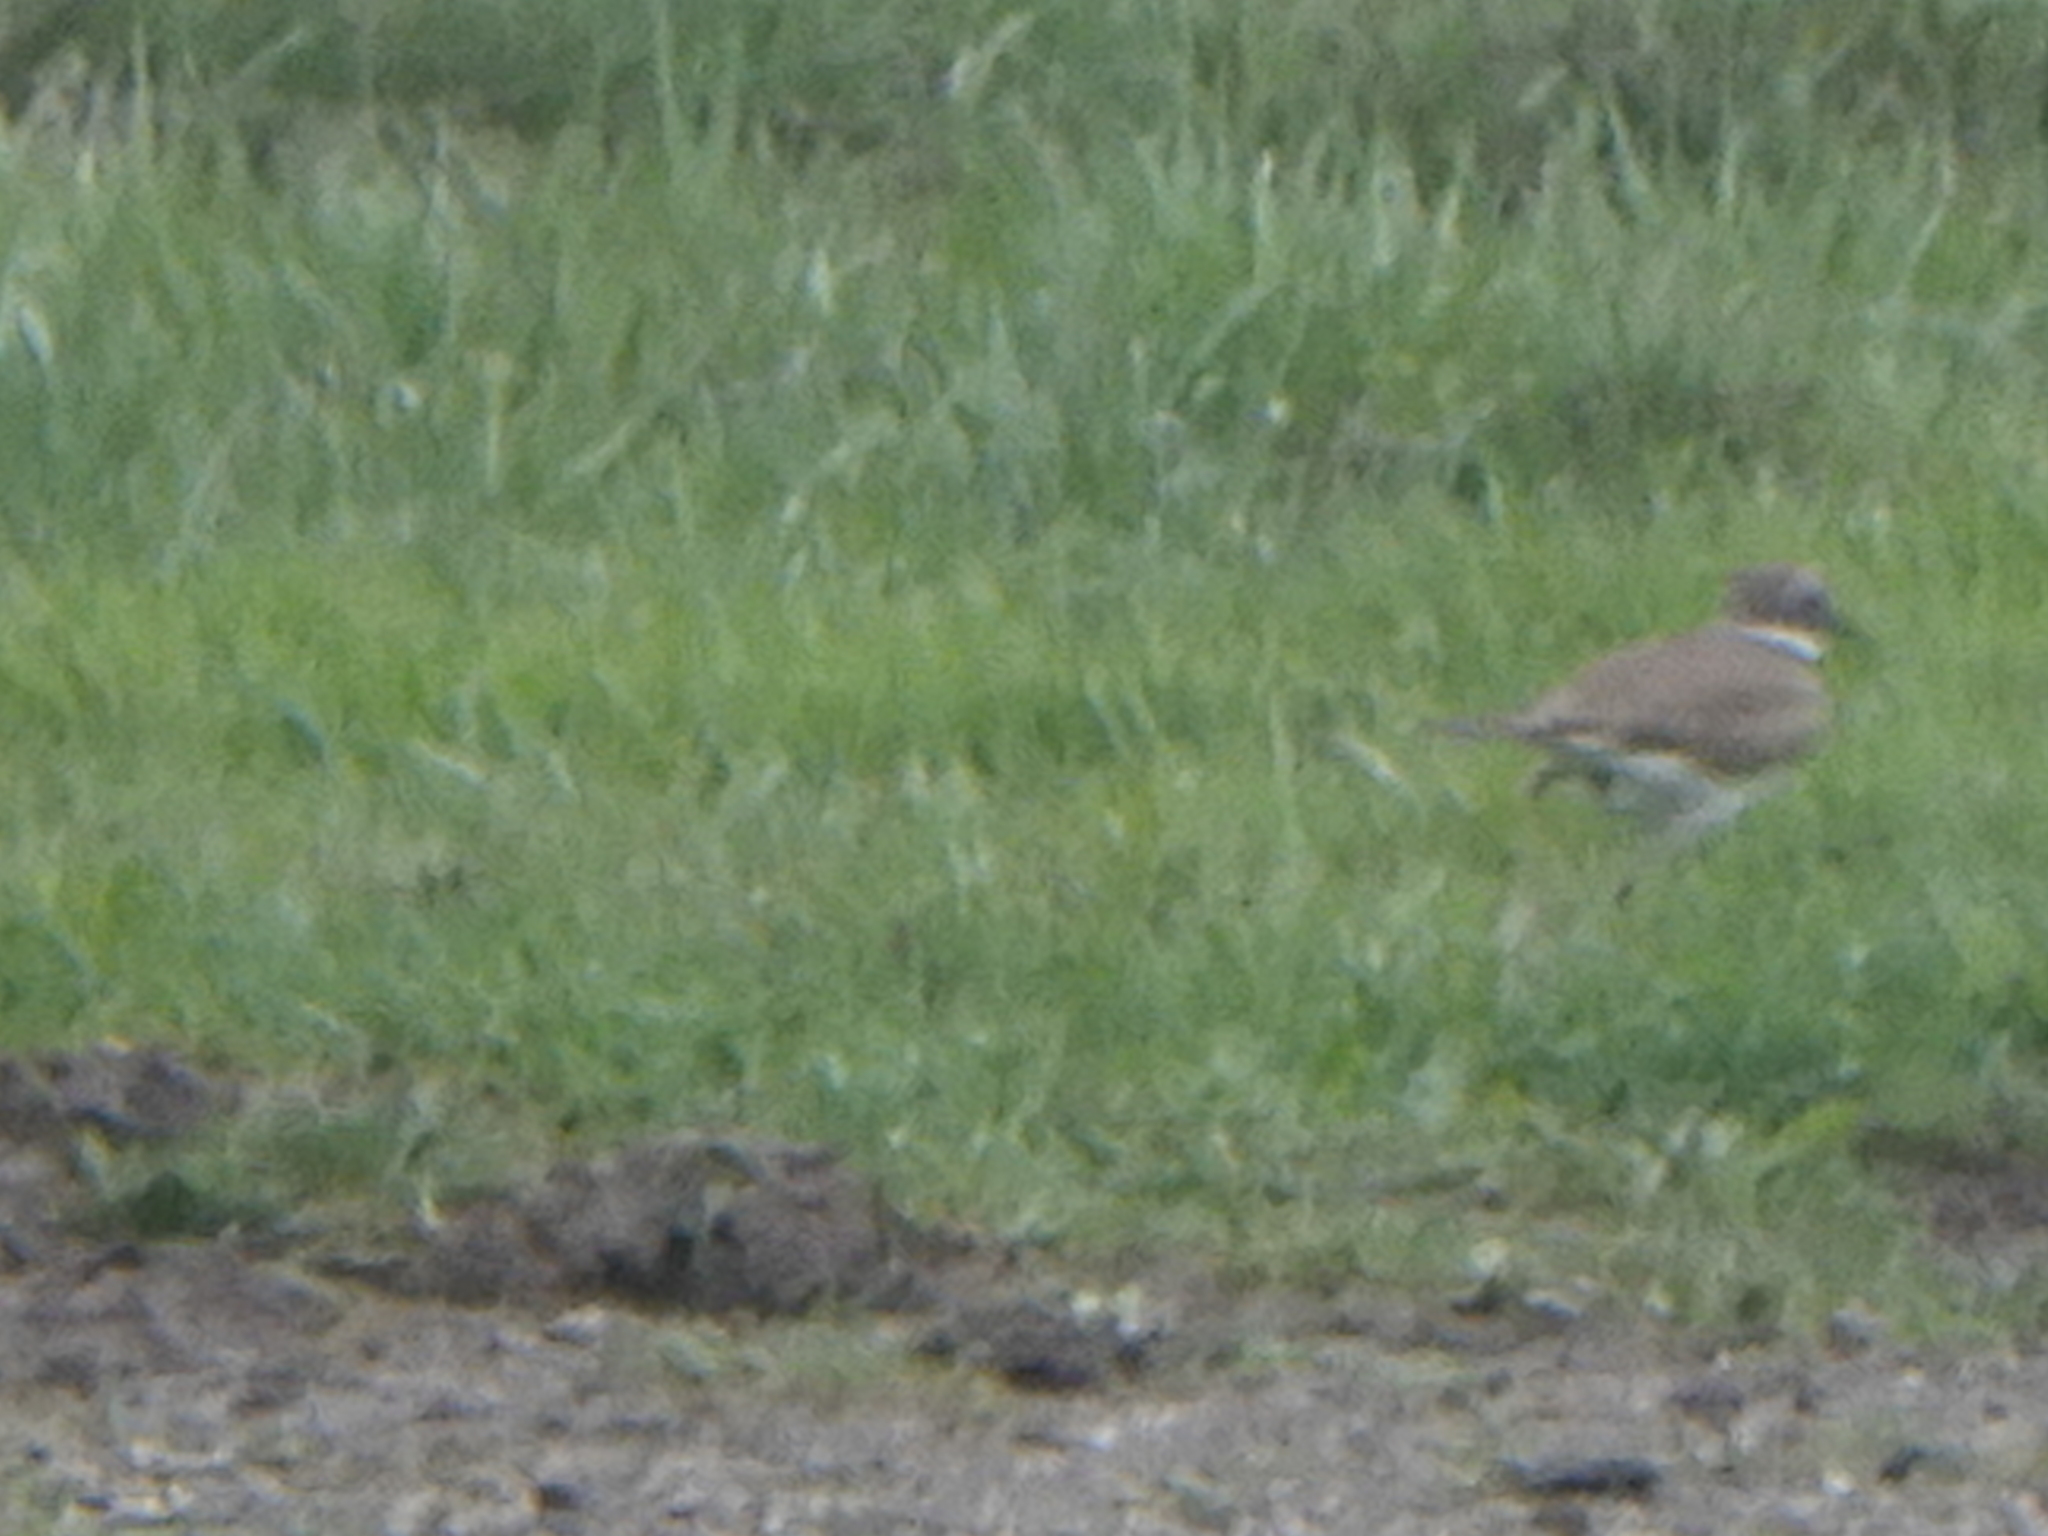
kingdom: Animalia
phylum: Chordata
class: Aves
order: Charadriiformes
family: Charadriidae
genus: Charadrius
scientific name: Charadrius vociferus
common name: Killdeer
